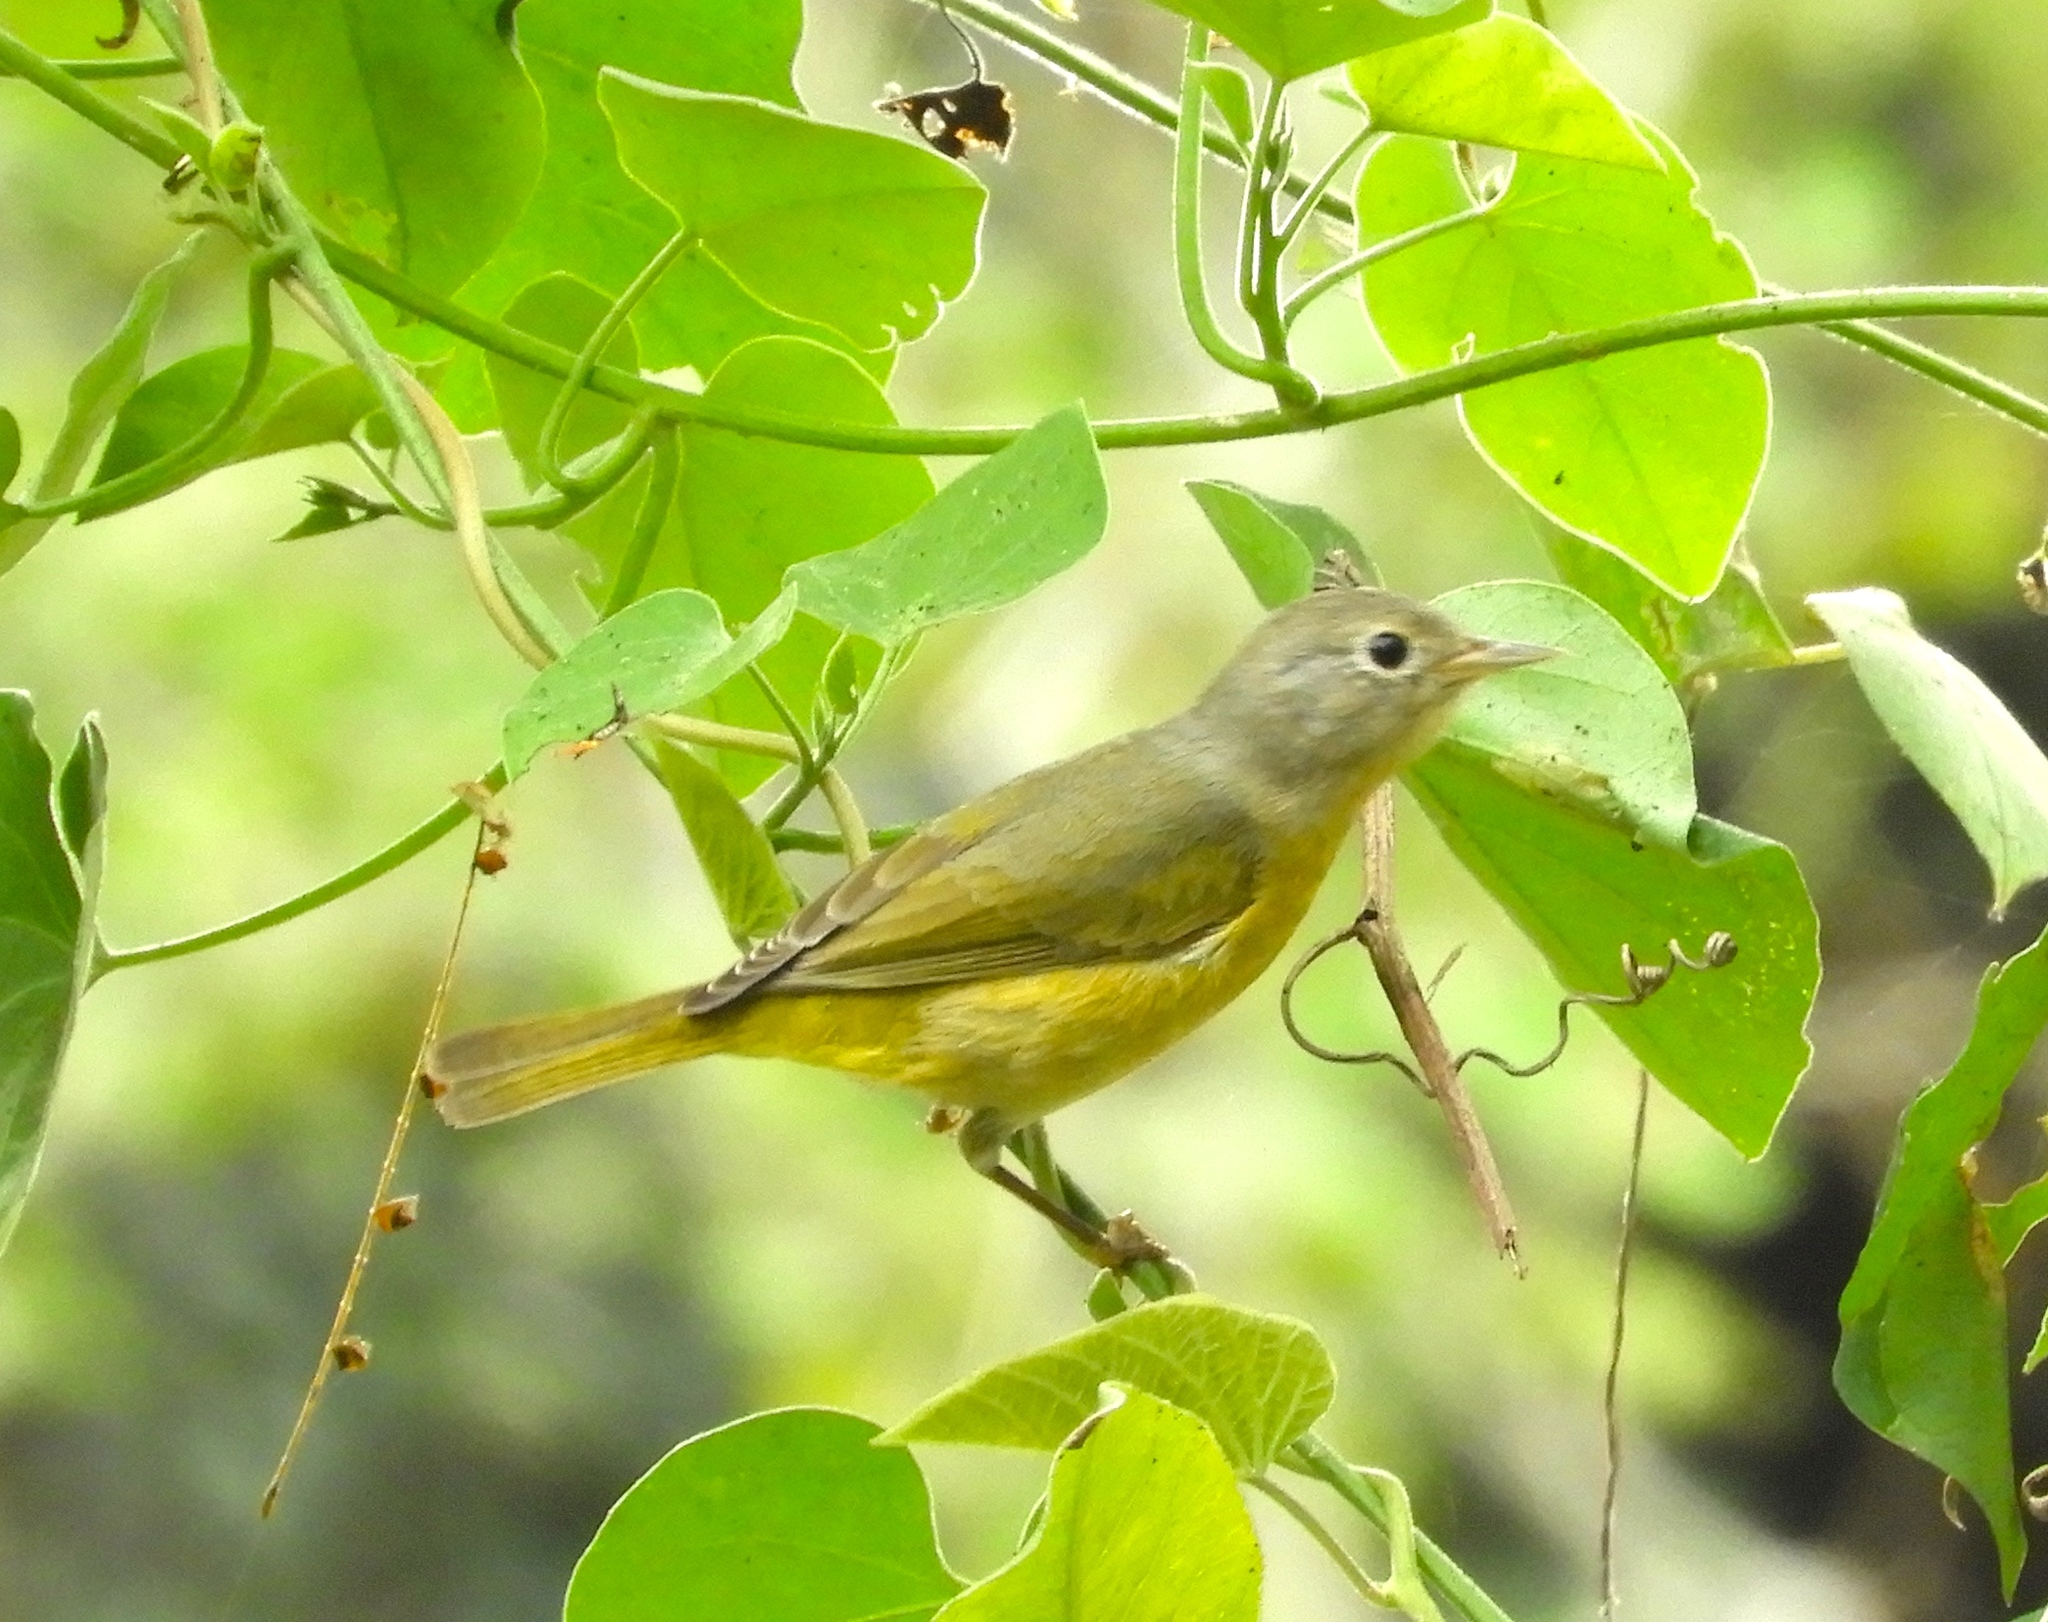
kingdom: Animalia
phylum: Chordata
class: Aves
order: Passeriformes
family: Parulidae
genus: Leiothlypis
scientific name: Leiothlypis ruficapilla
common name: Nashville warbler
